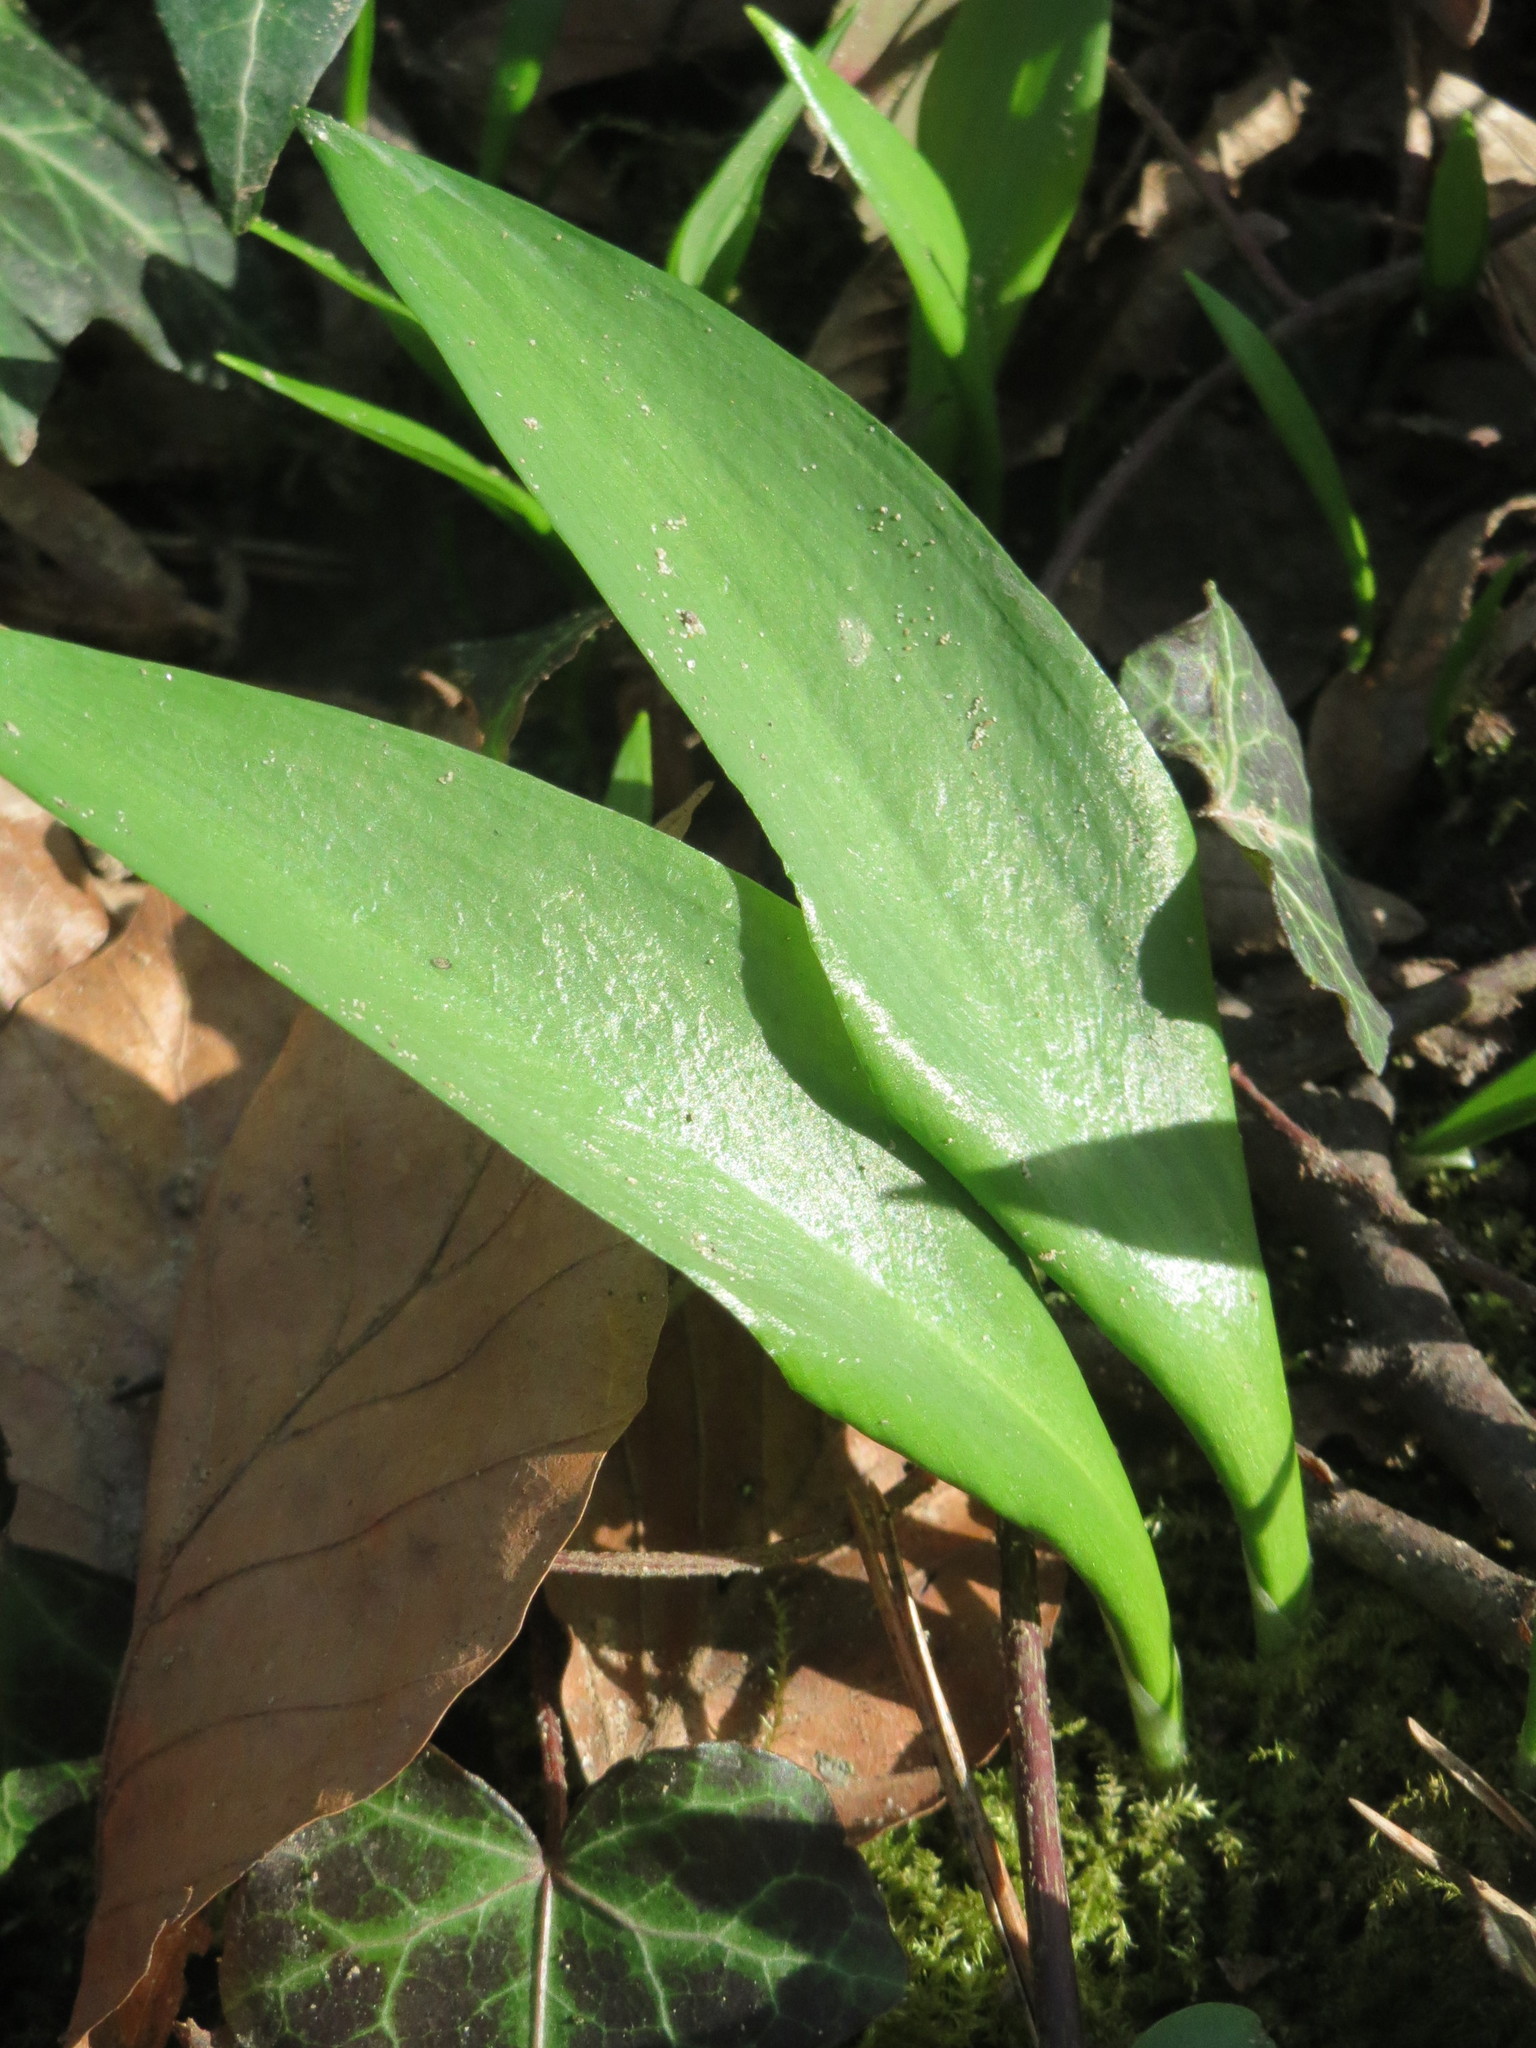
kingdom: Plantae
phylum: Tracheophyta
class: Liliopsida
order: Asparagales
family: Amaryllidaceae
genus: Allium
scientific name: Allium ursinum
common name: Ramsons
